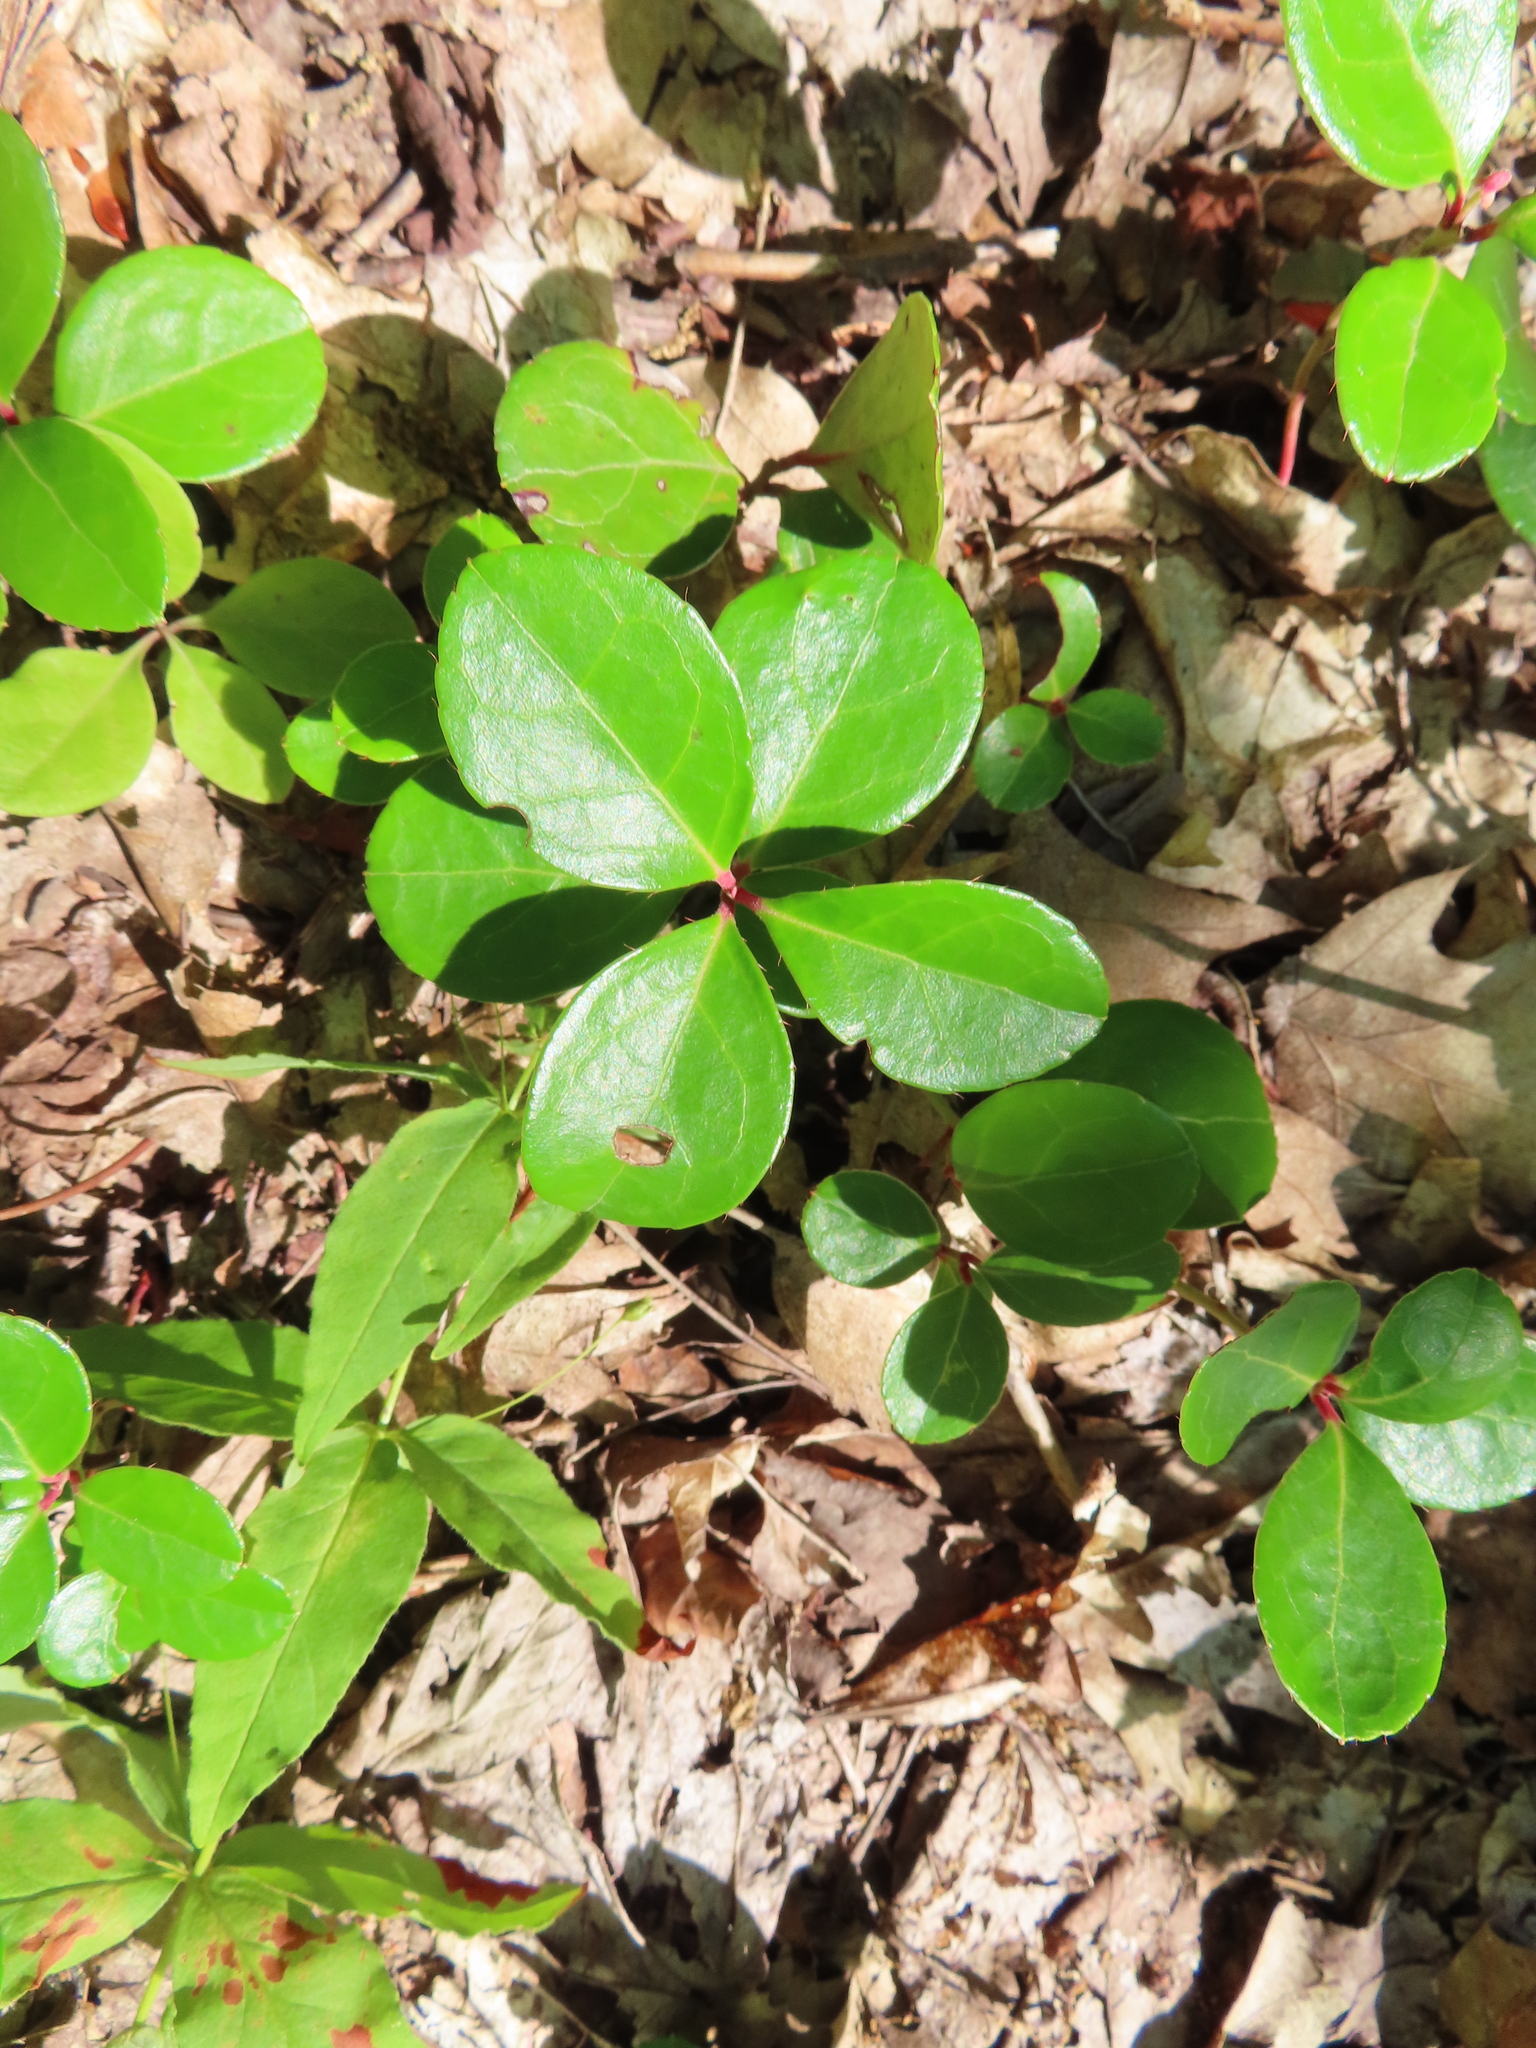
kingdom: Plantae
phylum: Tracheophyta
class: Magnoliopsida
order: Ericales
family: Ericaceae
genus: Gaultheria
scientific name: Gaultheria procumbens
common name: Checkerberry
